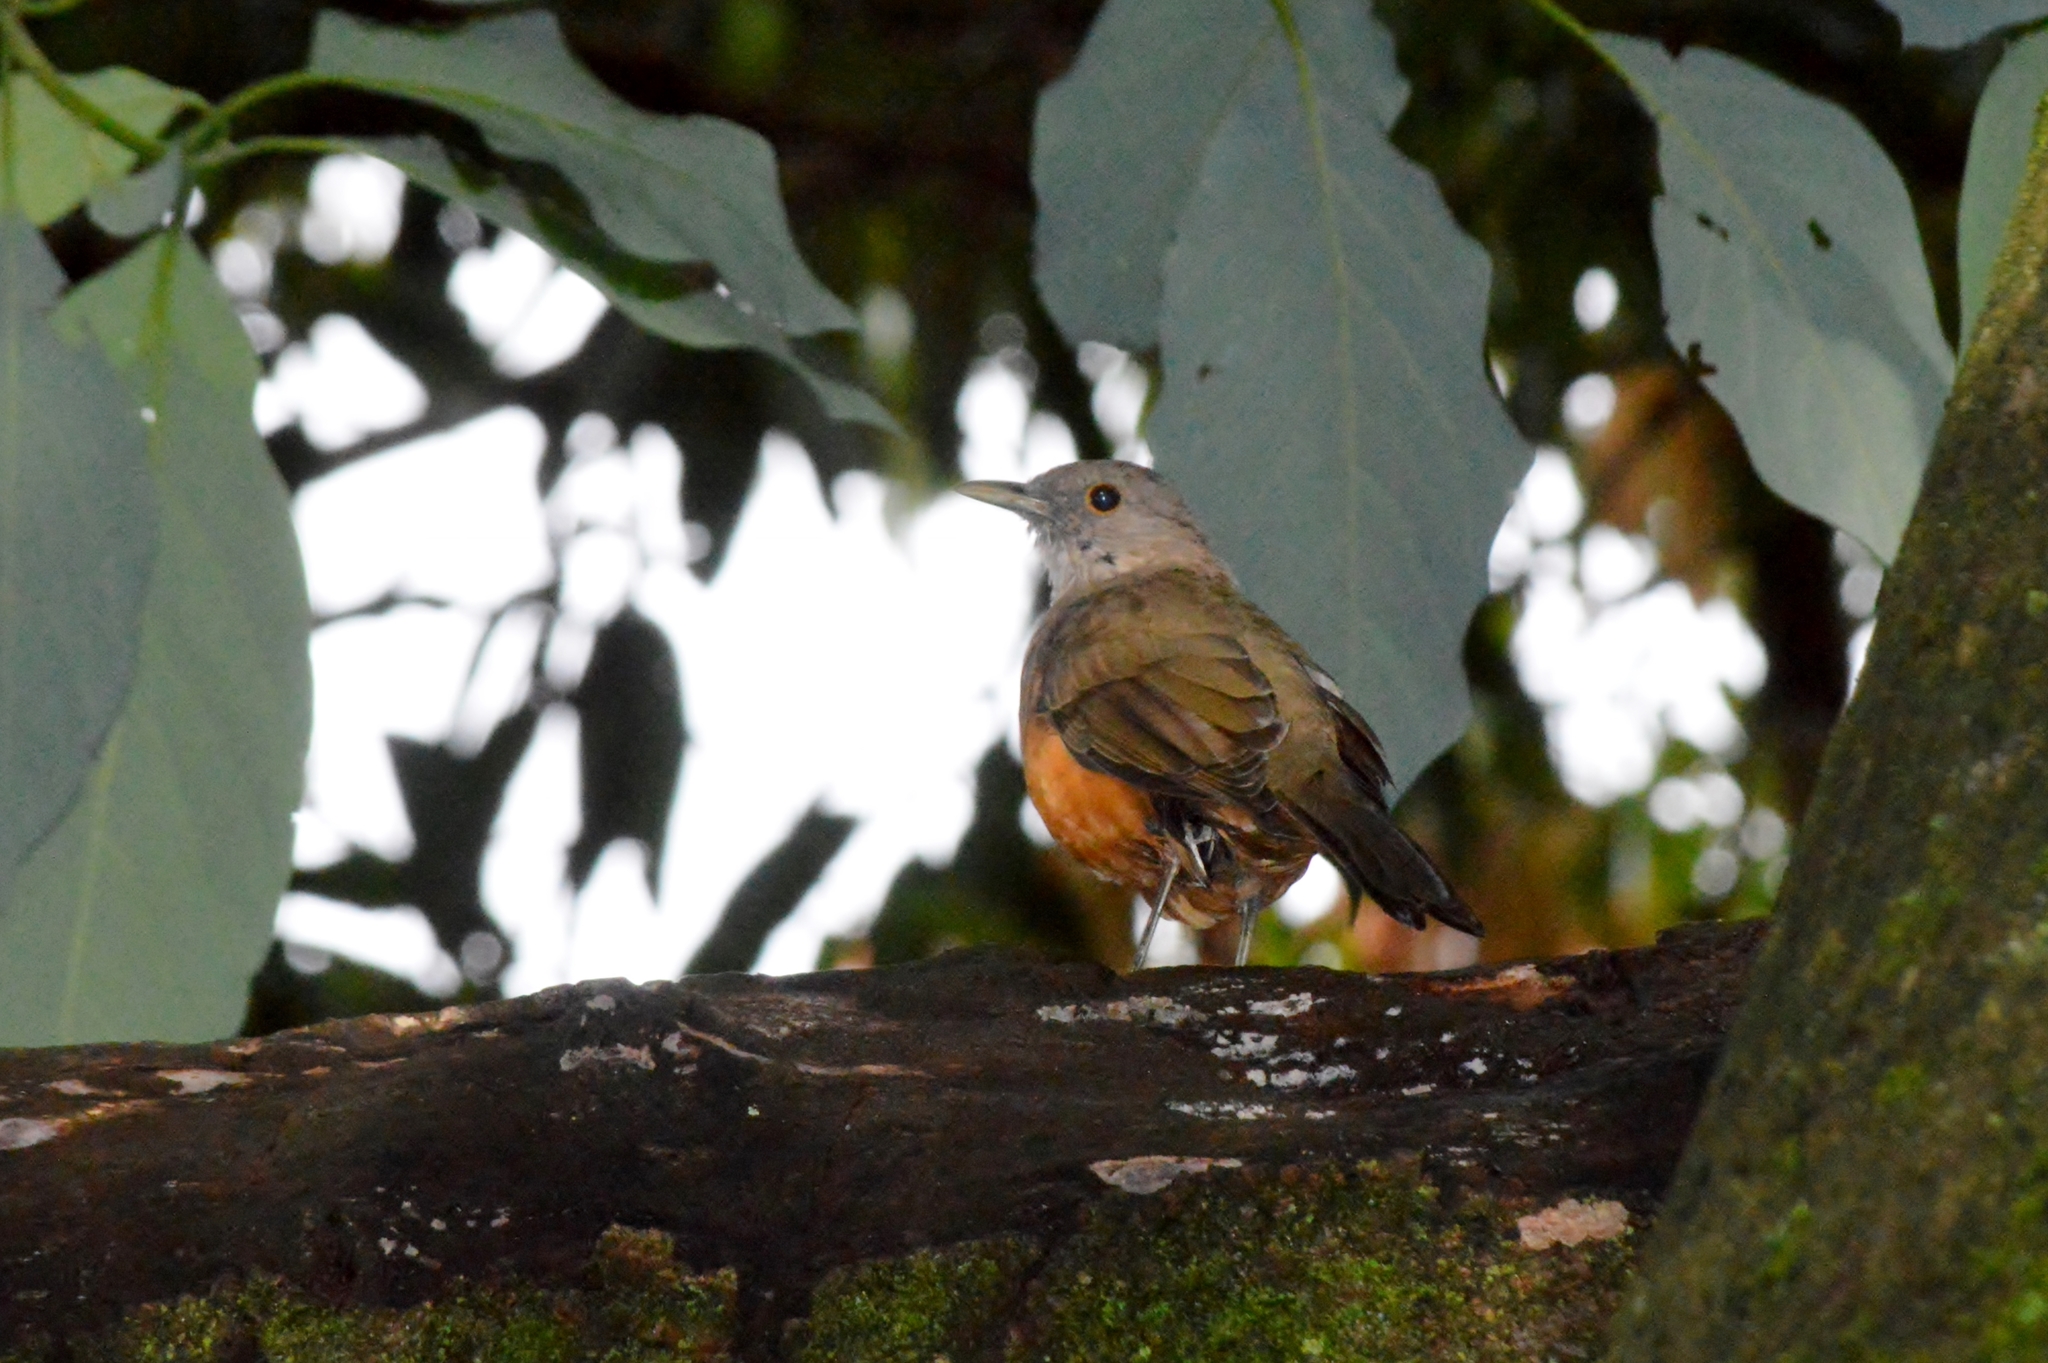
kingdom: Animalia
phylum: Chordata
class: Aves
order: Passeriformes
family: Turdidae
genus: Turdus
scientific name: Turdus rufiventris
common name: Rufous-bellied thrush
